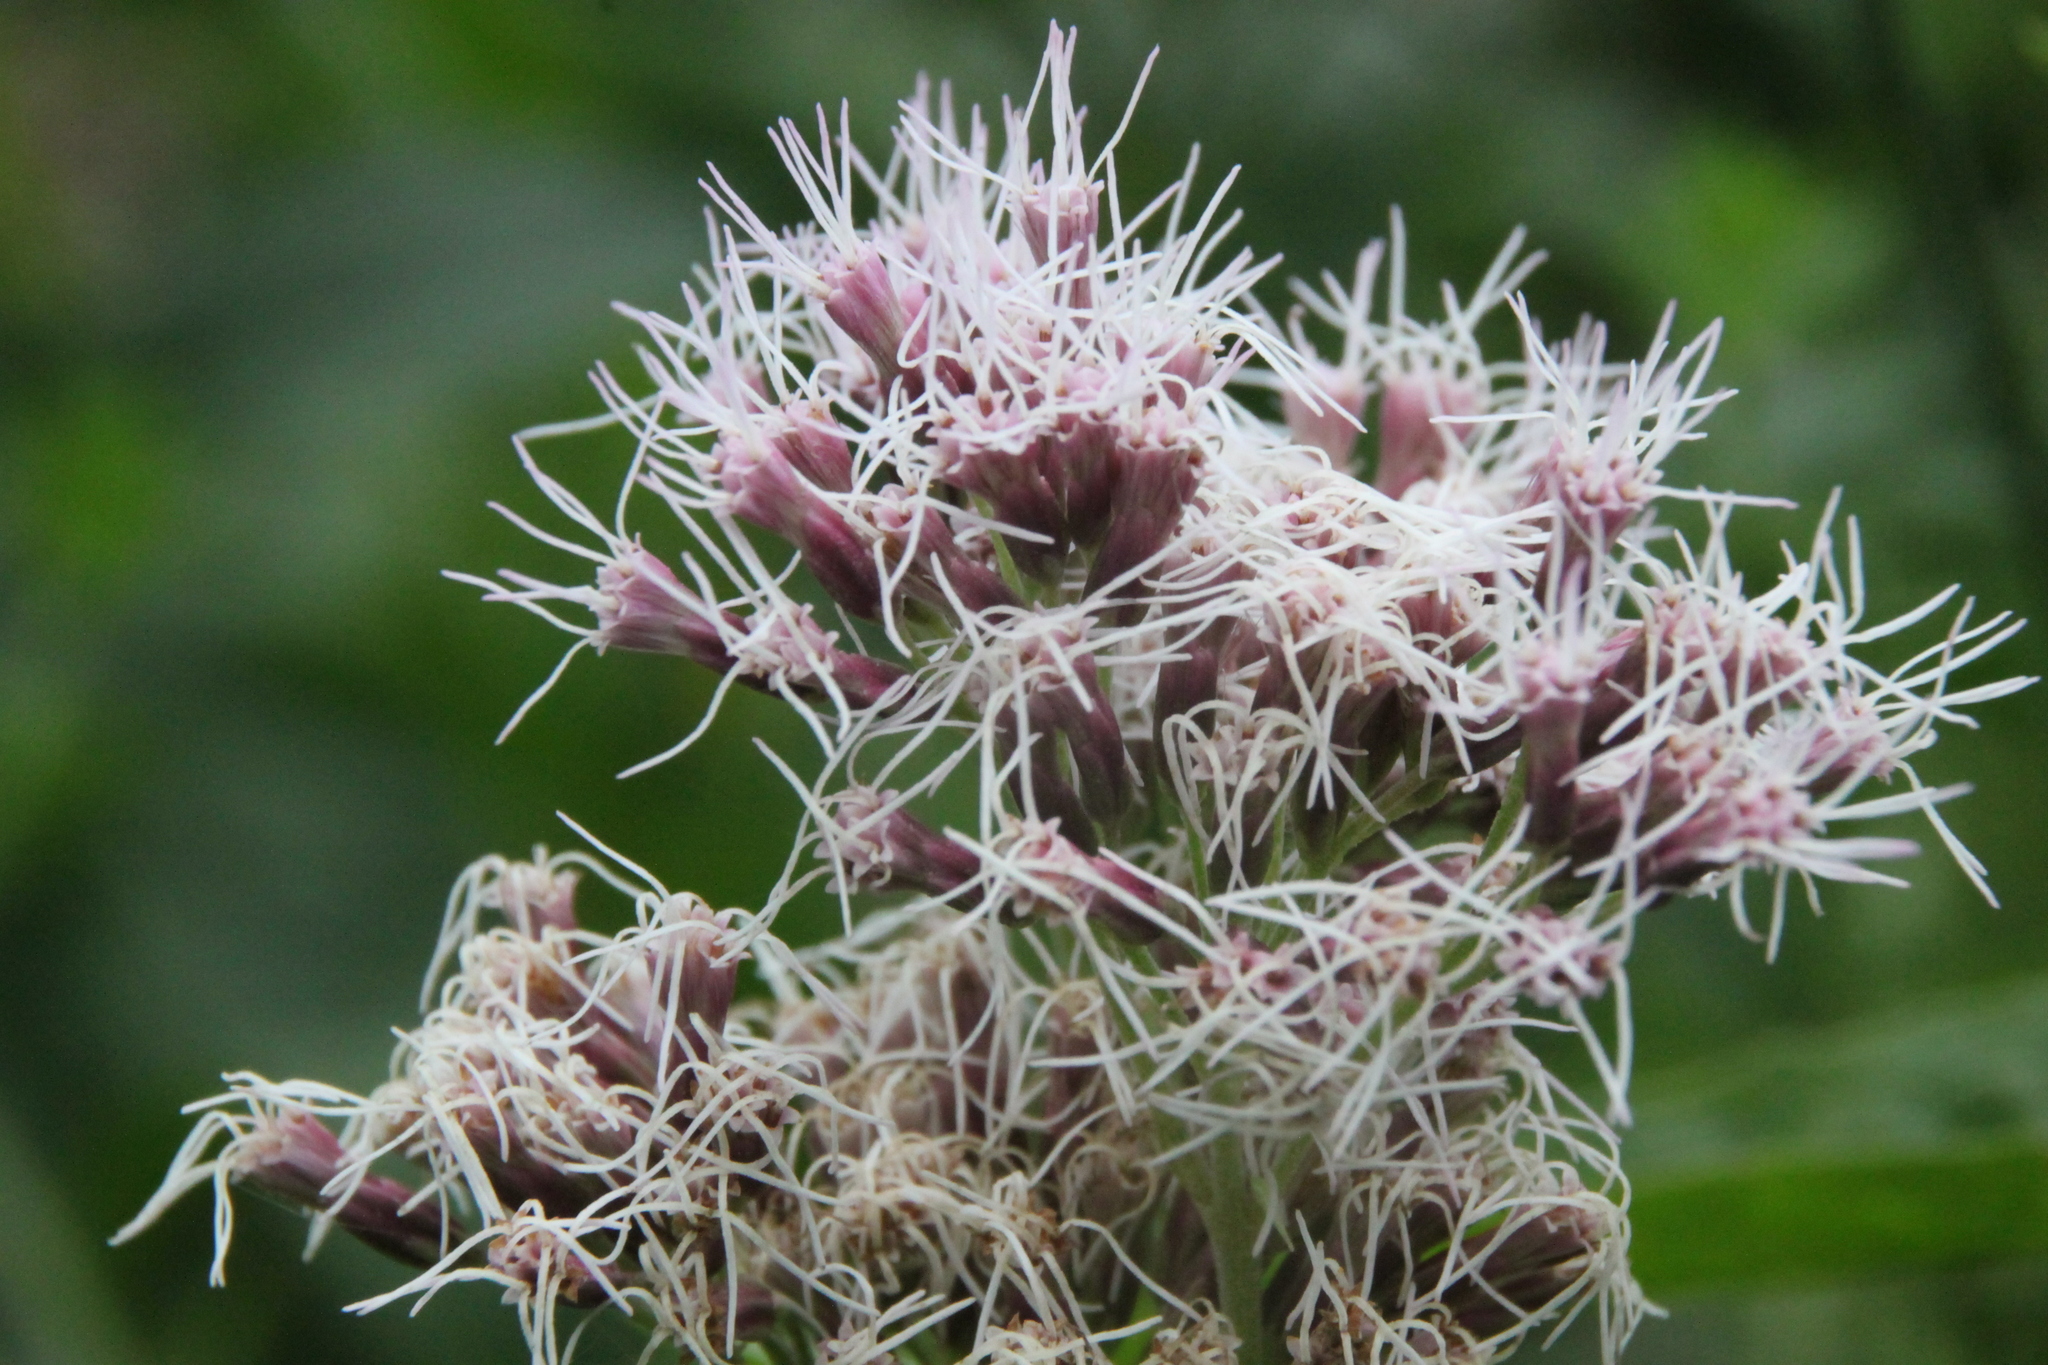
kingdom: Plantae
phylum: Tracheophyta
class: Magnoliopsida
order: Asterales
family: Asteraceae
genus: Eupatorium
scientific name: Eupatorium cannabinum
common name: Hemp-agrimony
